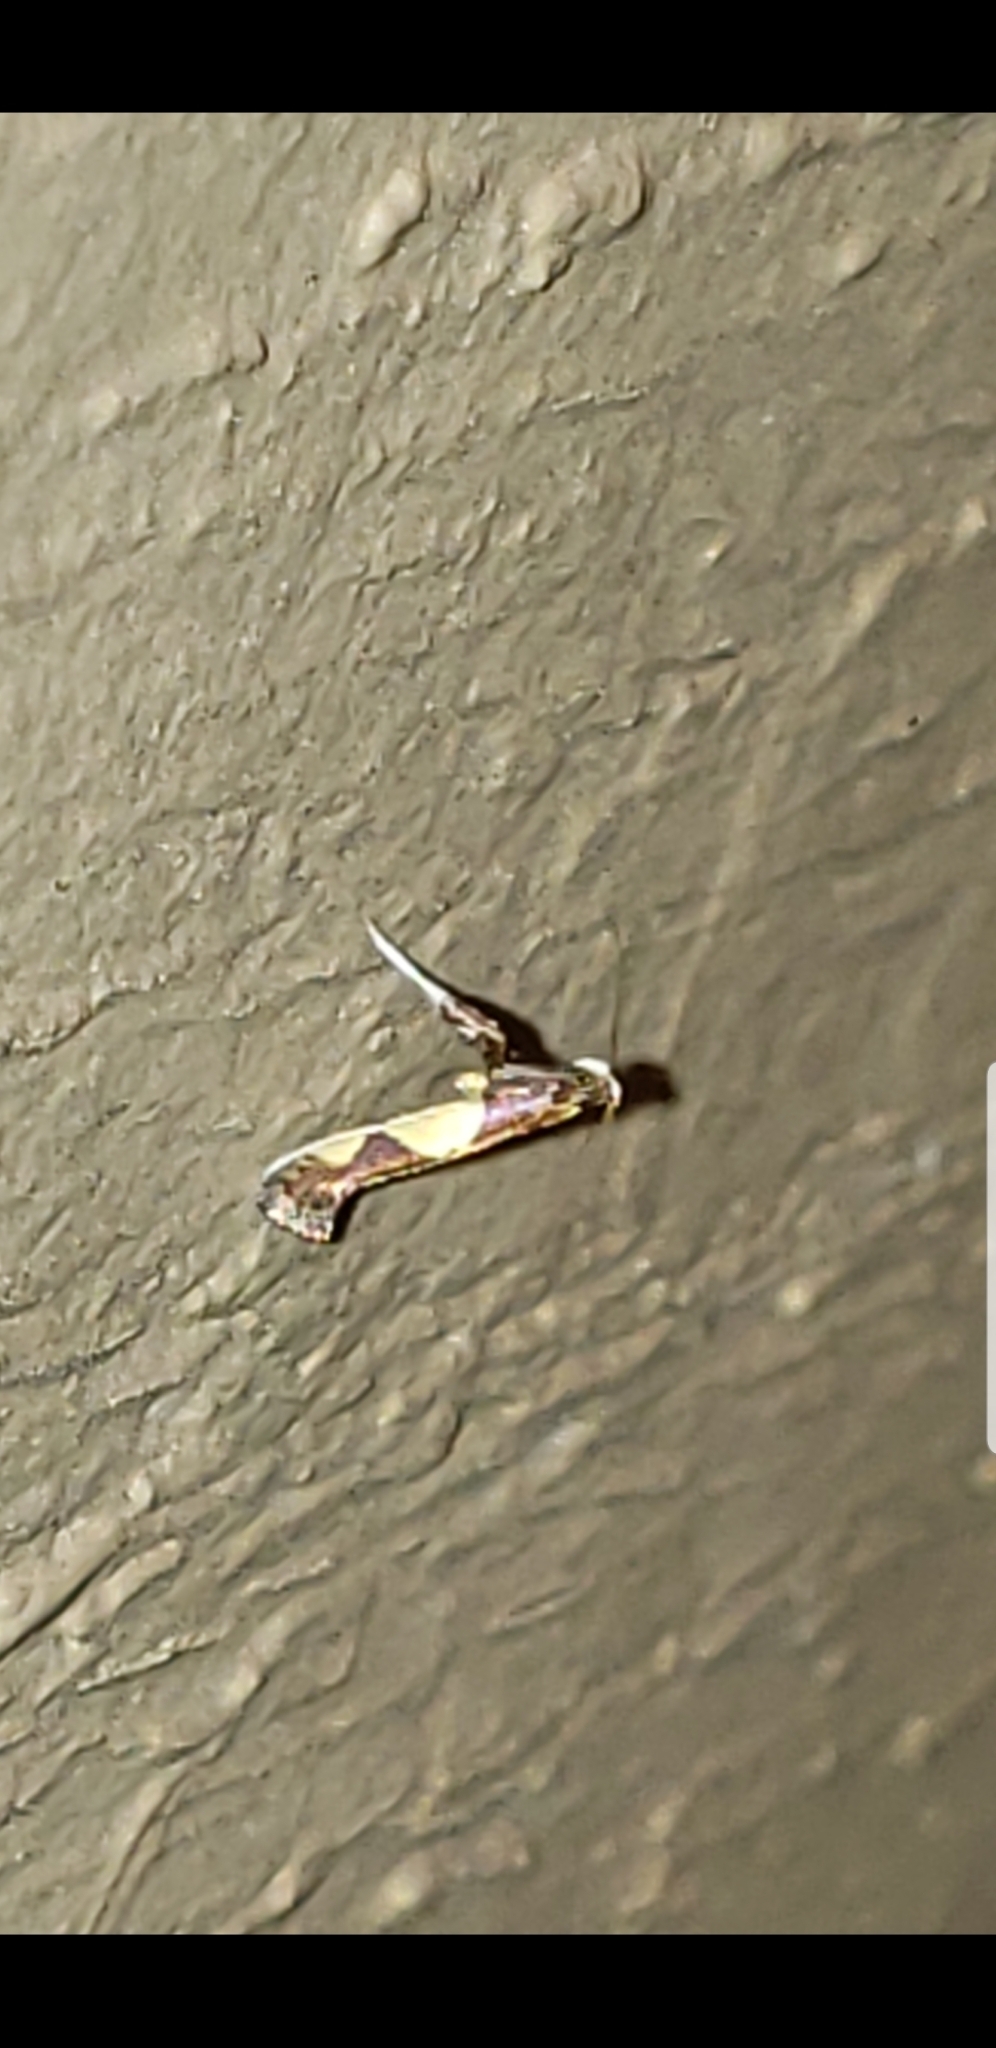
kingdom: Animalia
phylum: Arthropoda
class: Insecta
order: Lepidoptera
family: Gracillariidae
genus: Caloptilia
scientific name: Caloptilia bimaculatella
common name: Maple caloptilia moth
